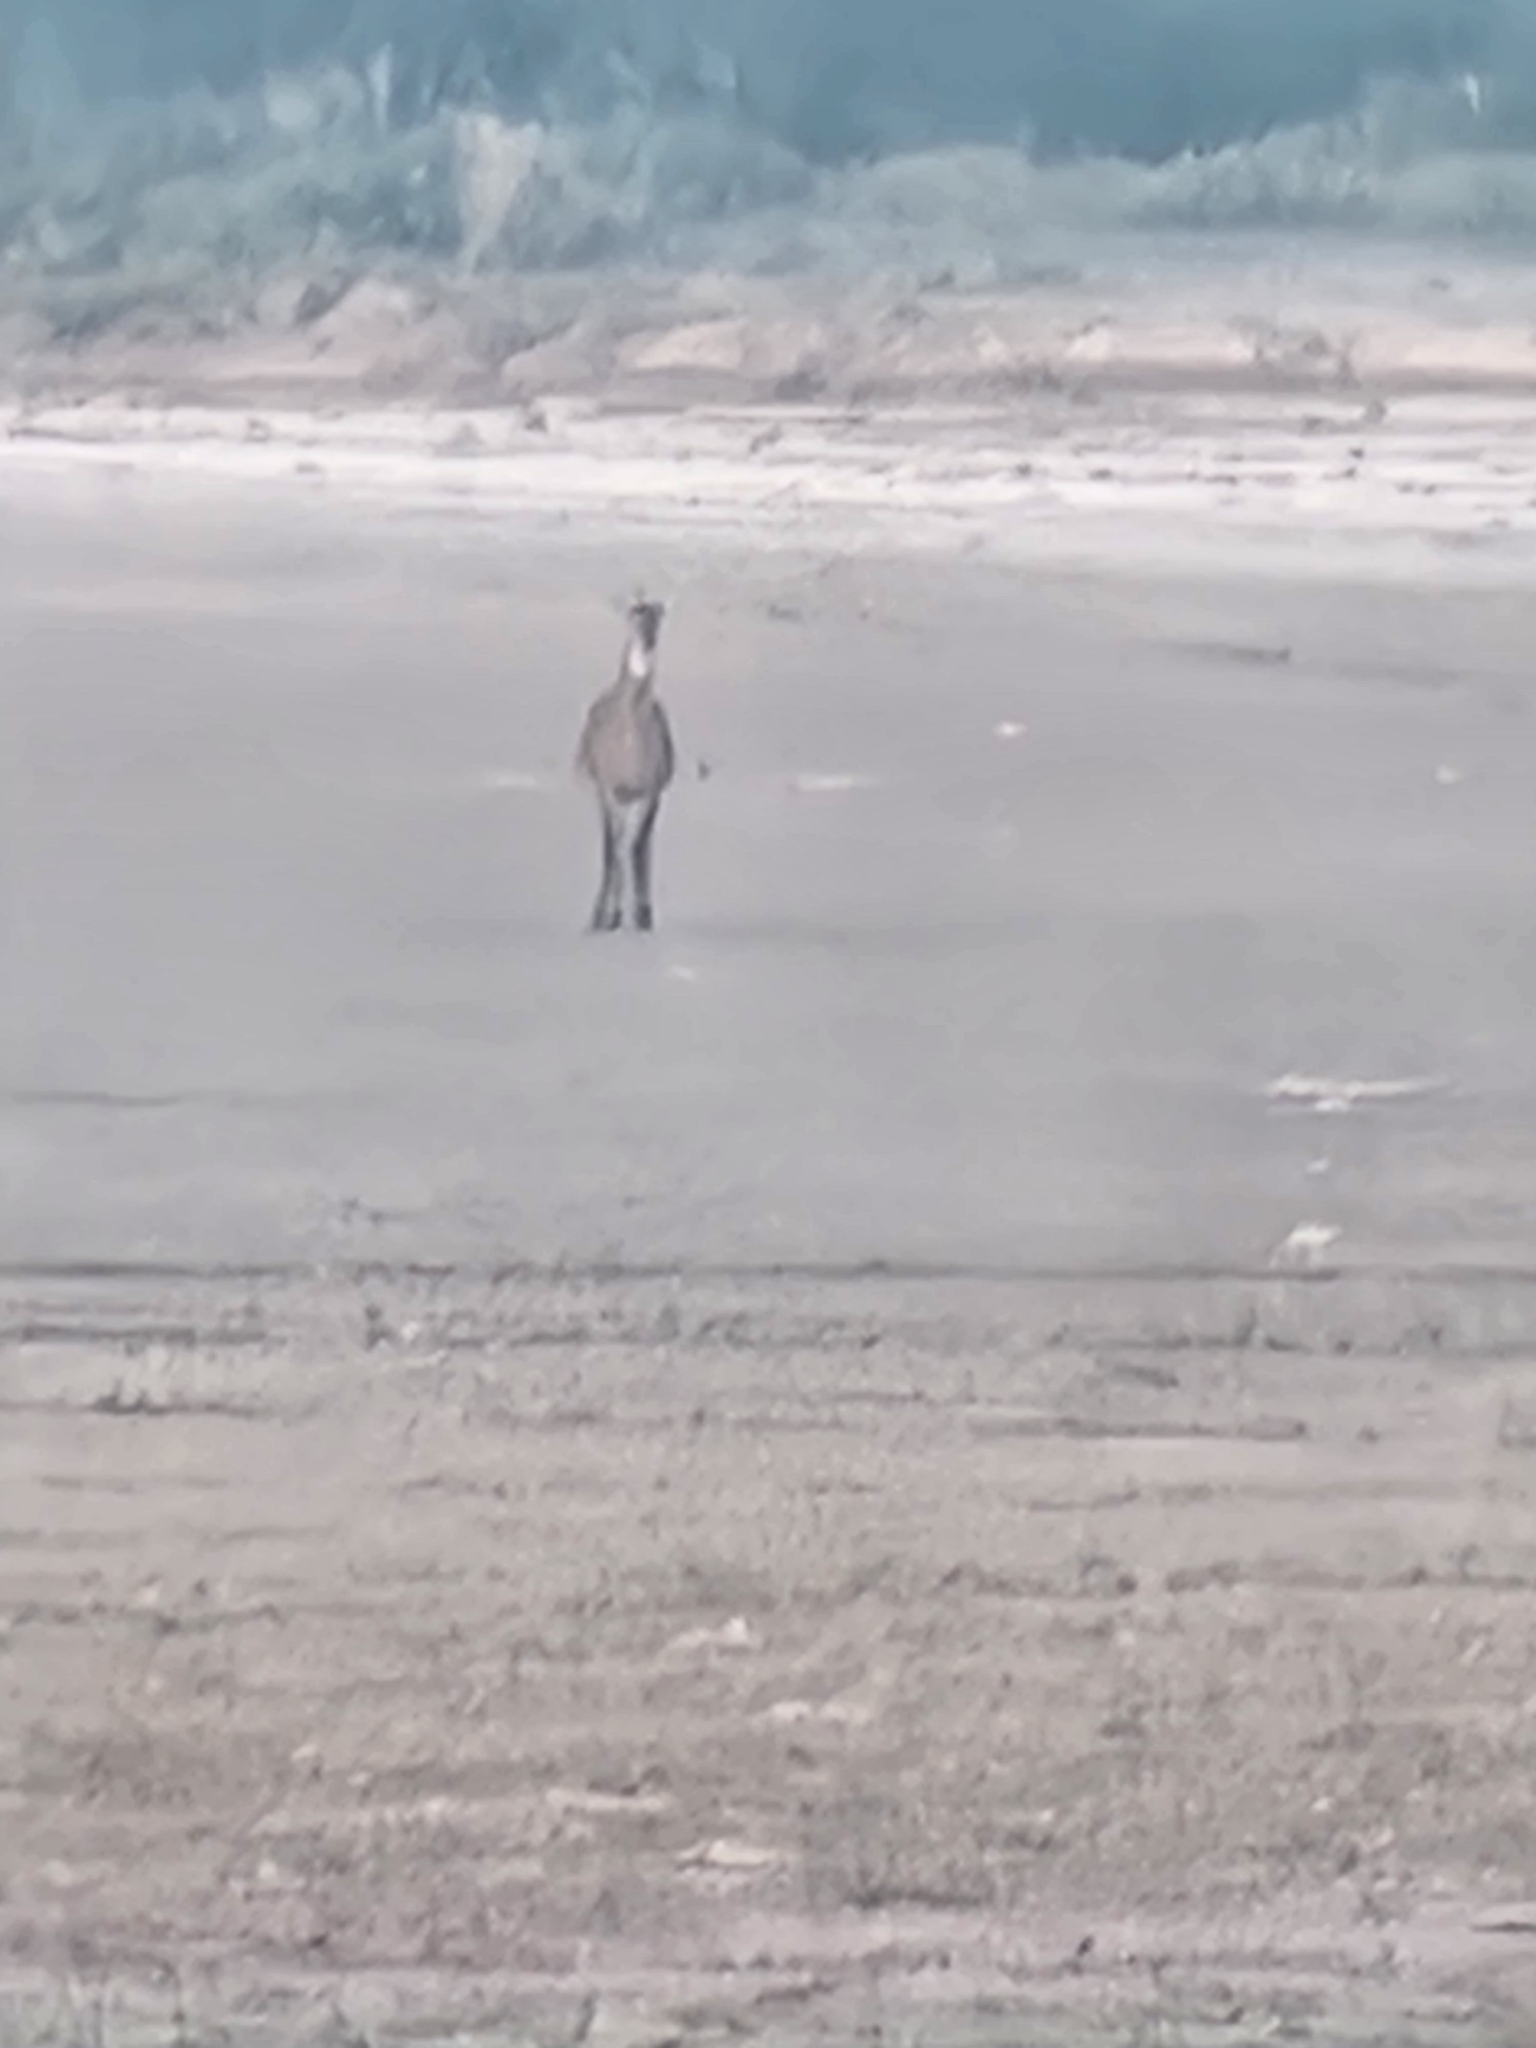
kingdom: Animalia
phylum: Chordata
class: Mammalia
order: Artiodactyla
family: Bovidae
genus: Boselaphus
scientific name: Boselaphus tragocamelus
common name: Nilgai
